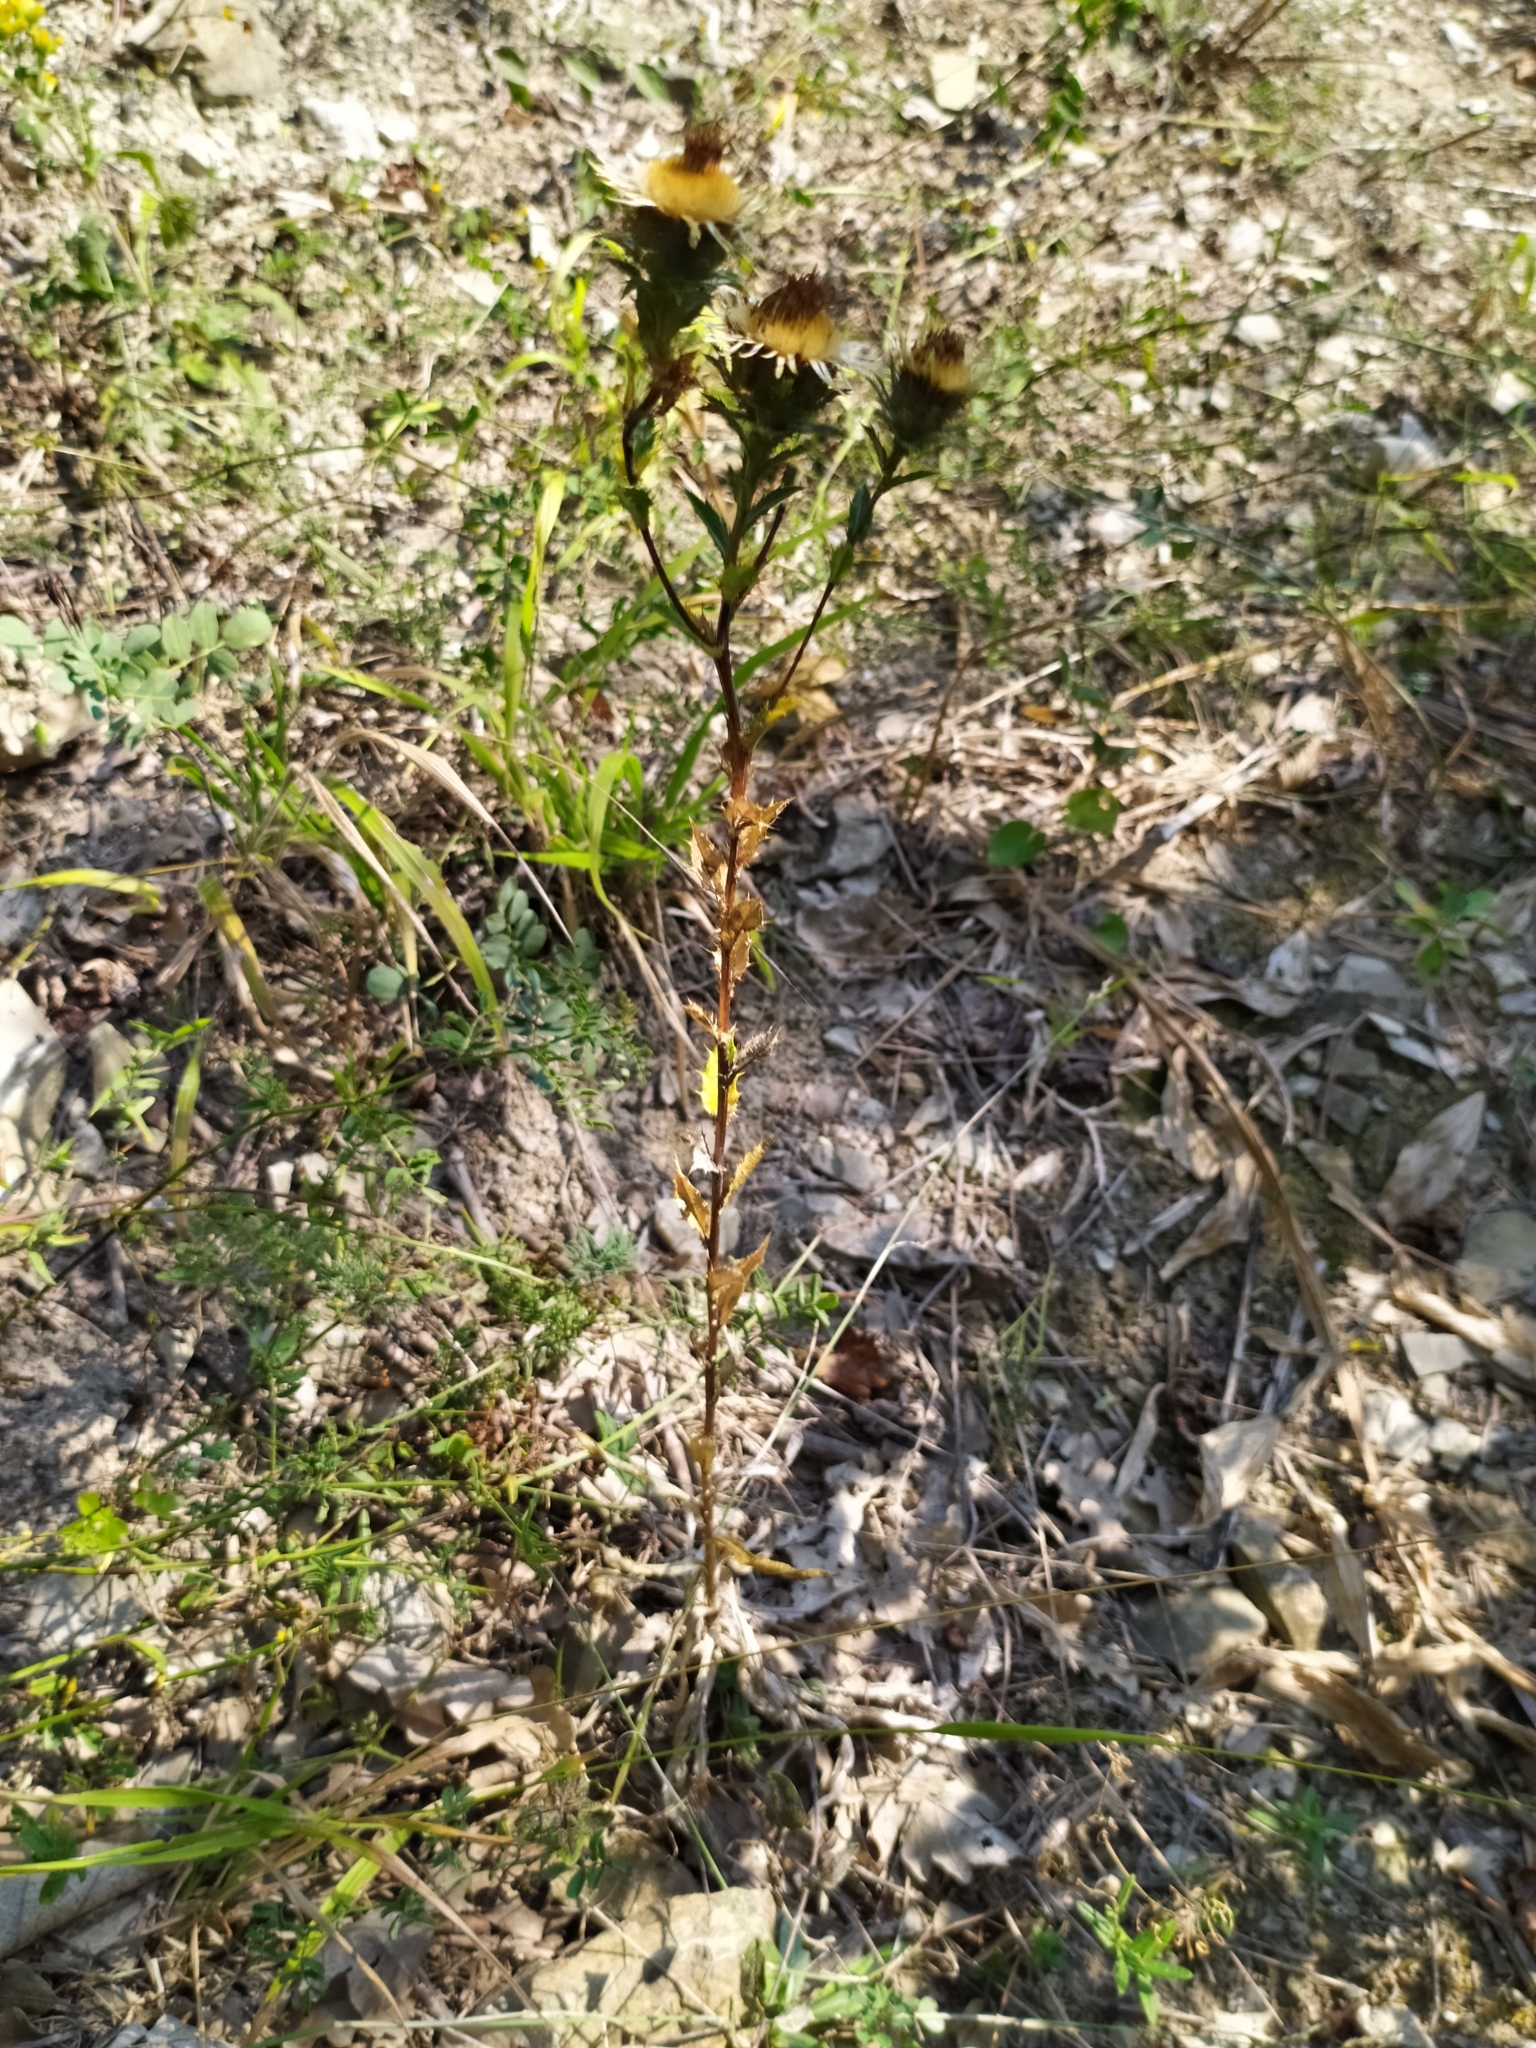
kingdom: Plantae
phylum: Tracheophyta
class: Magnoliopsida
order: Asterales
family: Asteraceae
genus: Carlina
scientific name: Carlina vulgaris
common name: Carline thistle
